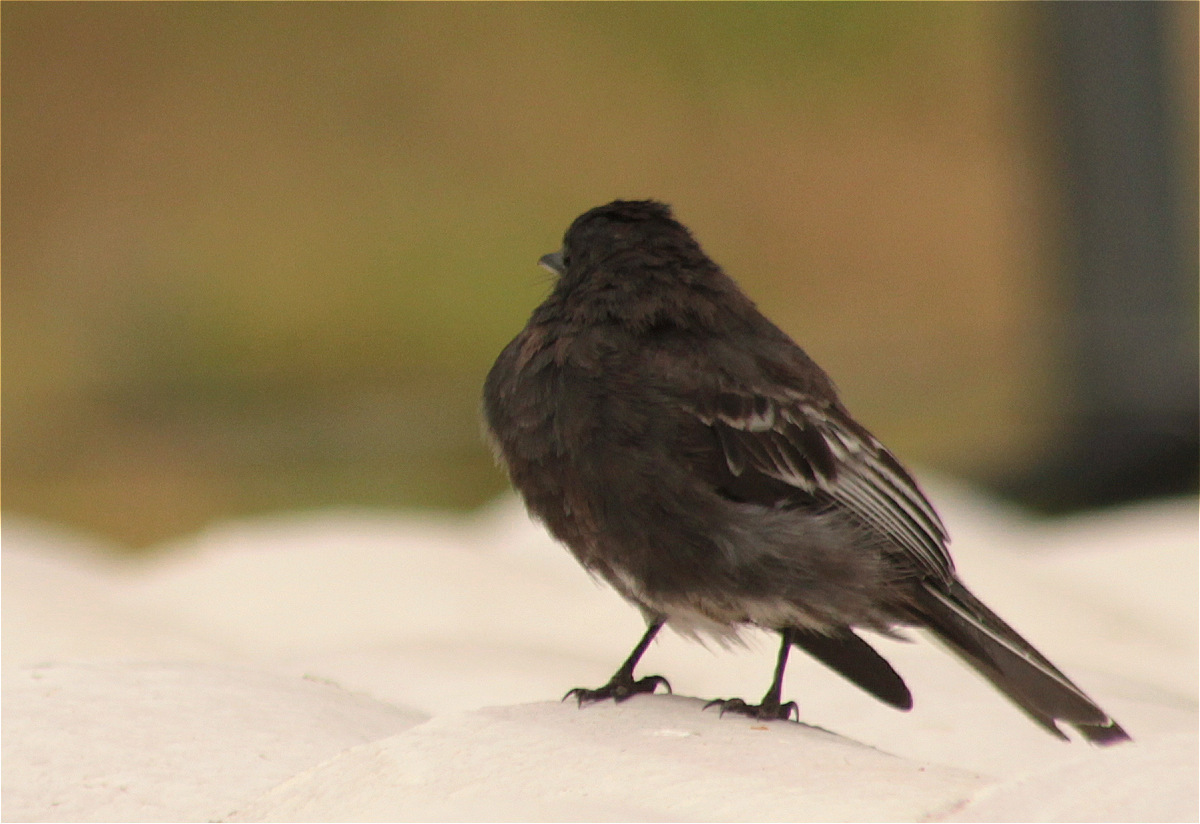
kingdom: Animalia
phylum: Chordata
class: Aves
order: Passeriformes
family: Tyrannidae
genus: Sayornis
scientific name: Sayornis nigricans
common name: Black phoebe
